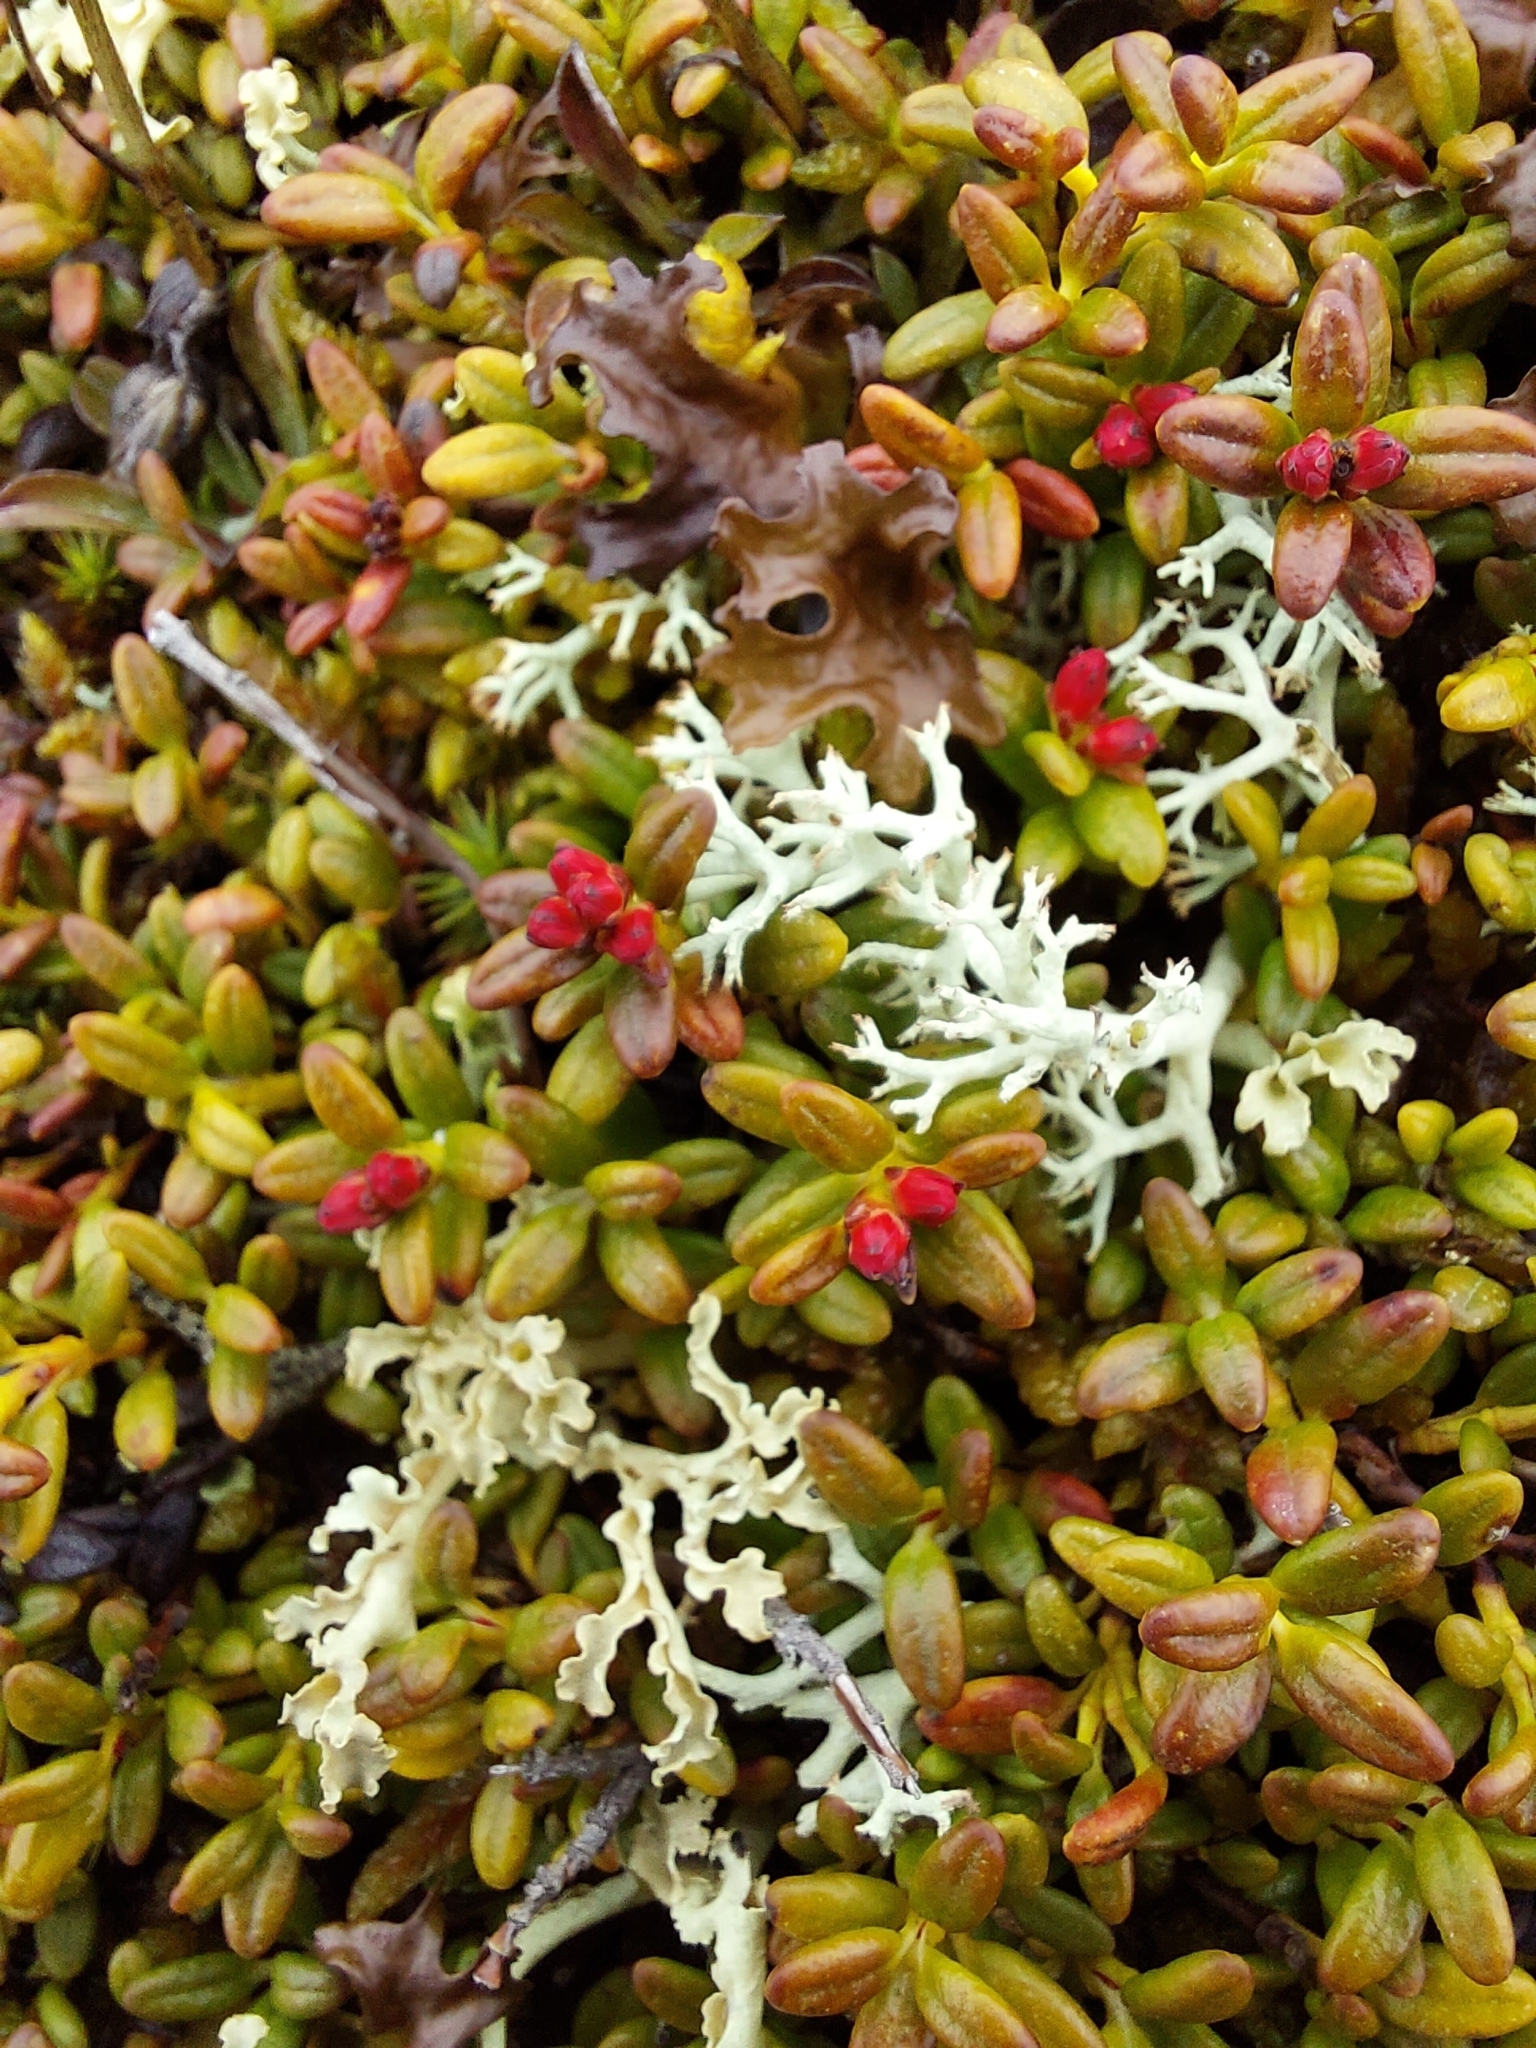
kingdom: Plantae
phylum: Tracheophyta
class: Magnoliopsida
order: Ericales
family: Ericaceae
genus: Kalmia
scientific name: Kalmia procumbens
